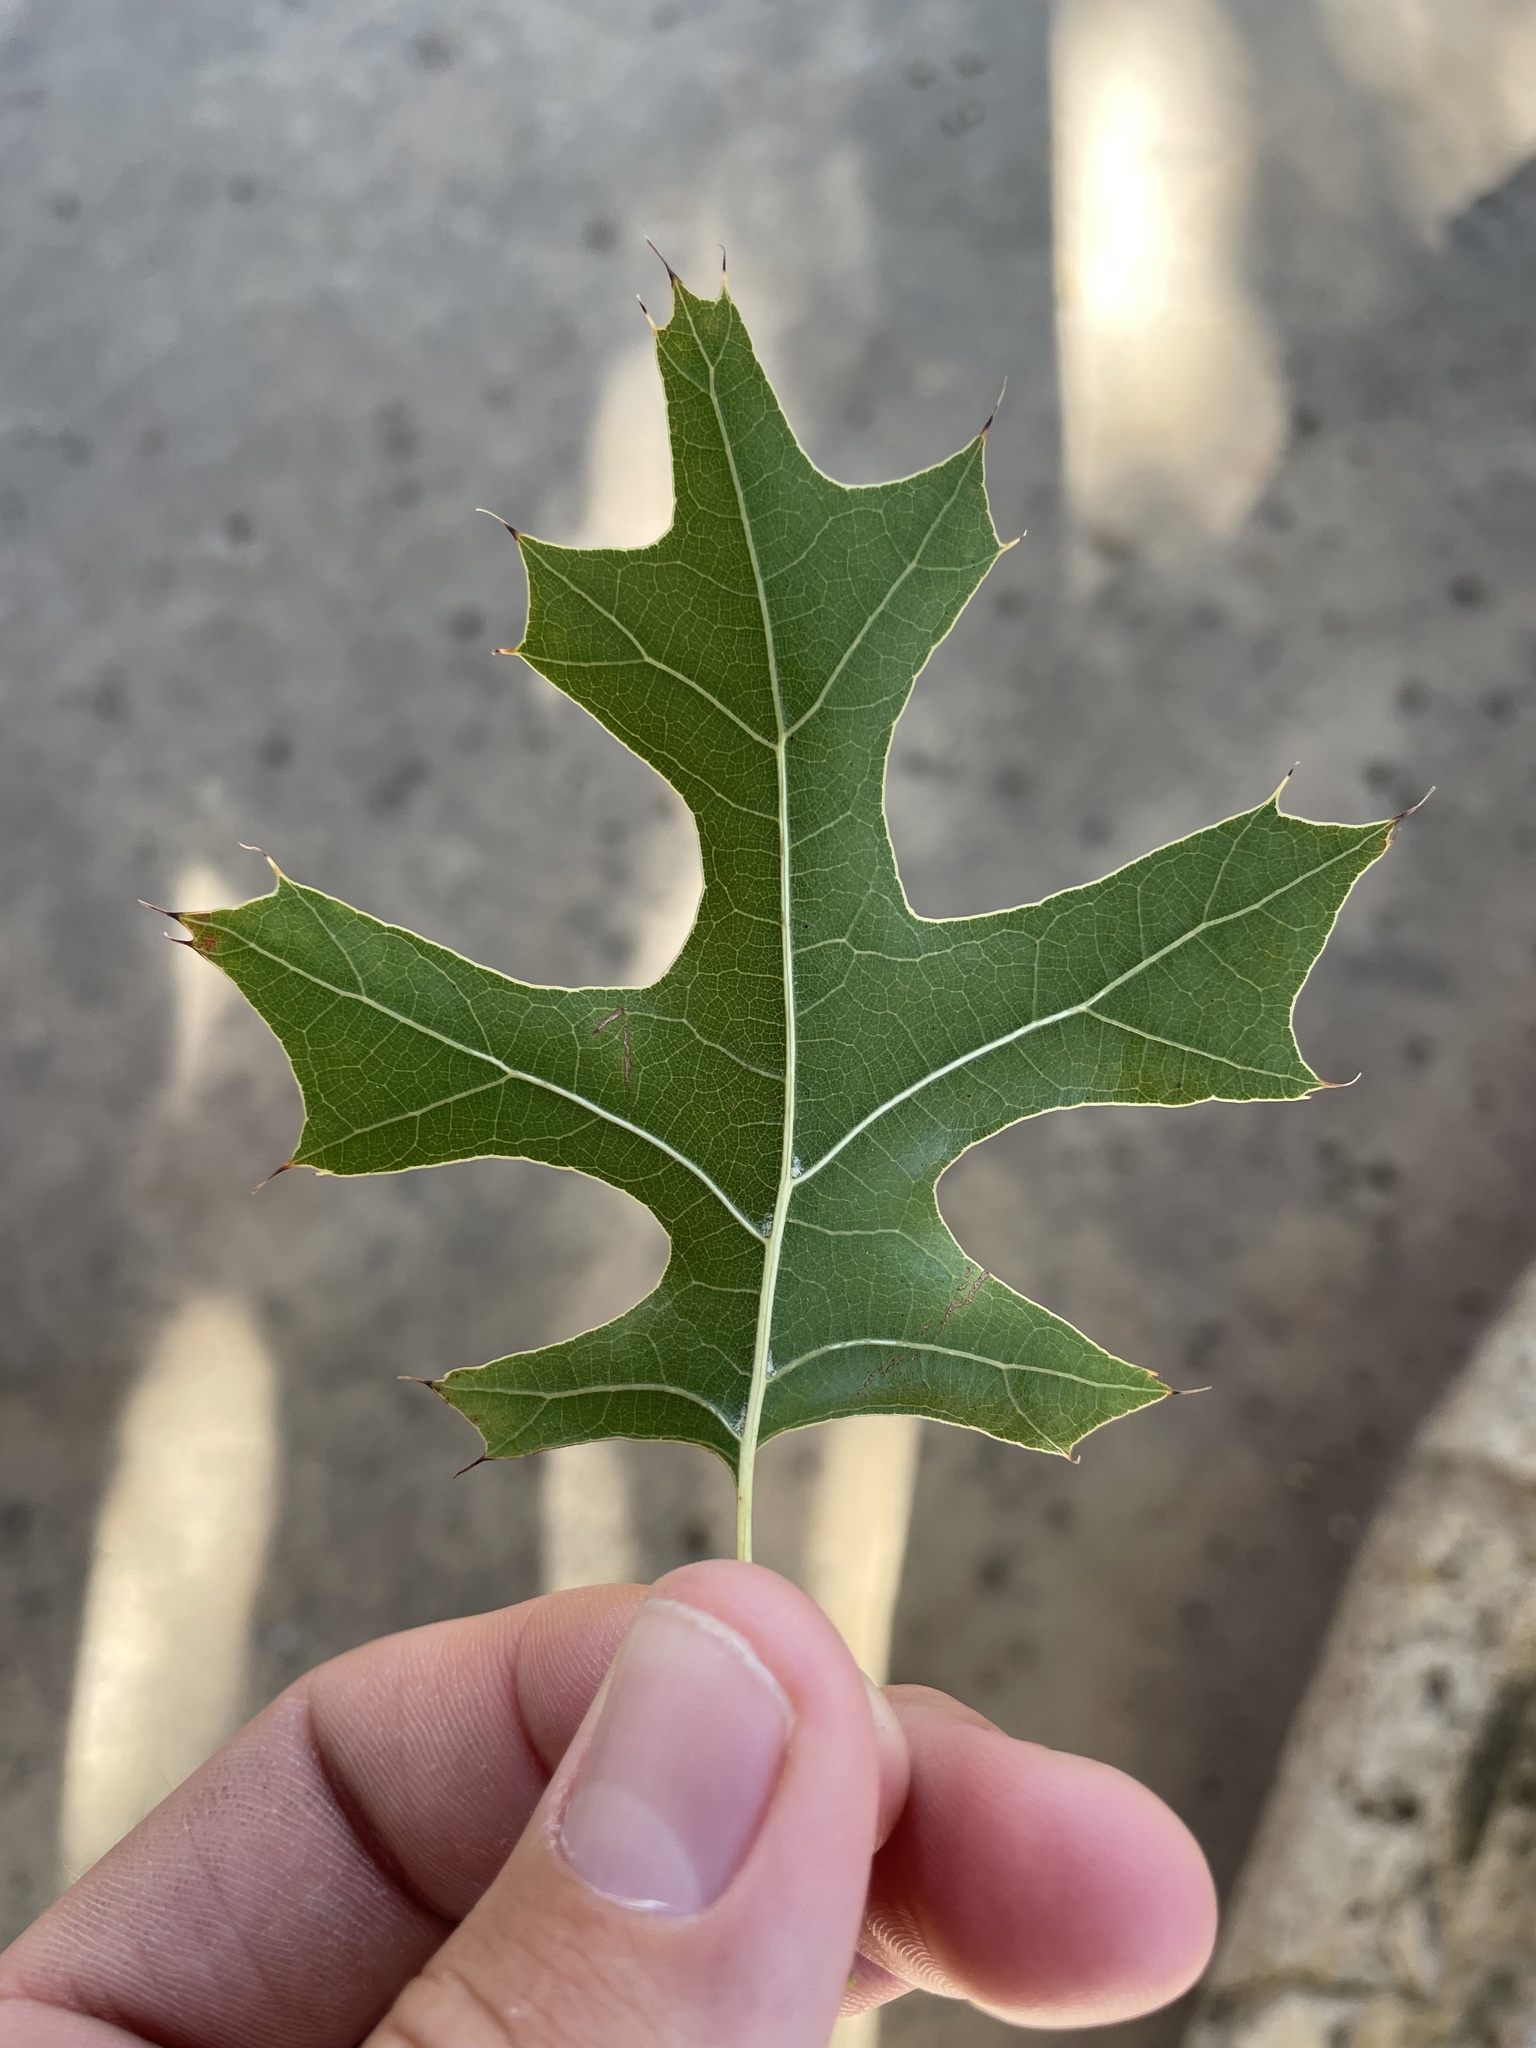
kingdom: Plantae
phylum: Tracheophyta
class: Magnoliopsida
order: Fagales
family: Fagaceae
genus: Quercus
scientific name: Quercus shumardii
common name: Shumard oak
